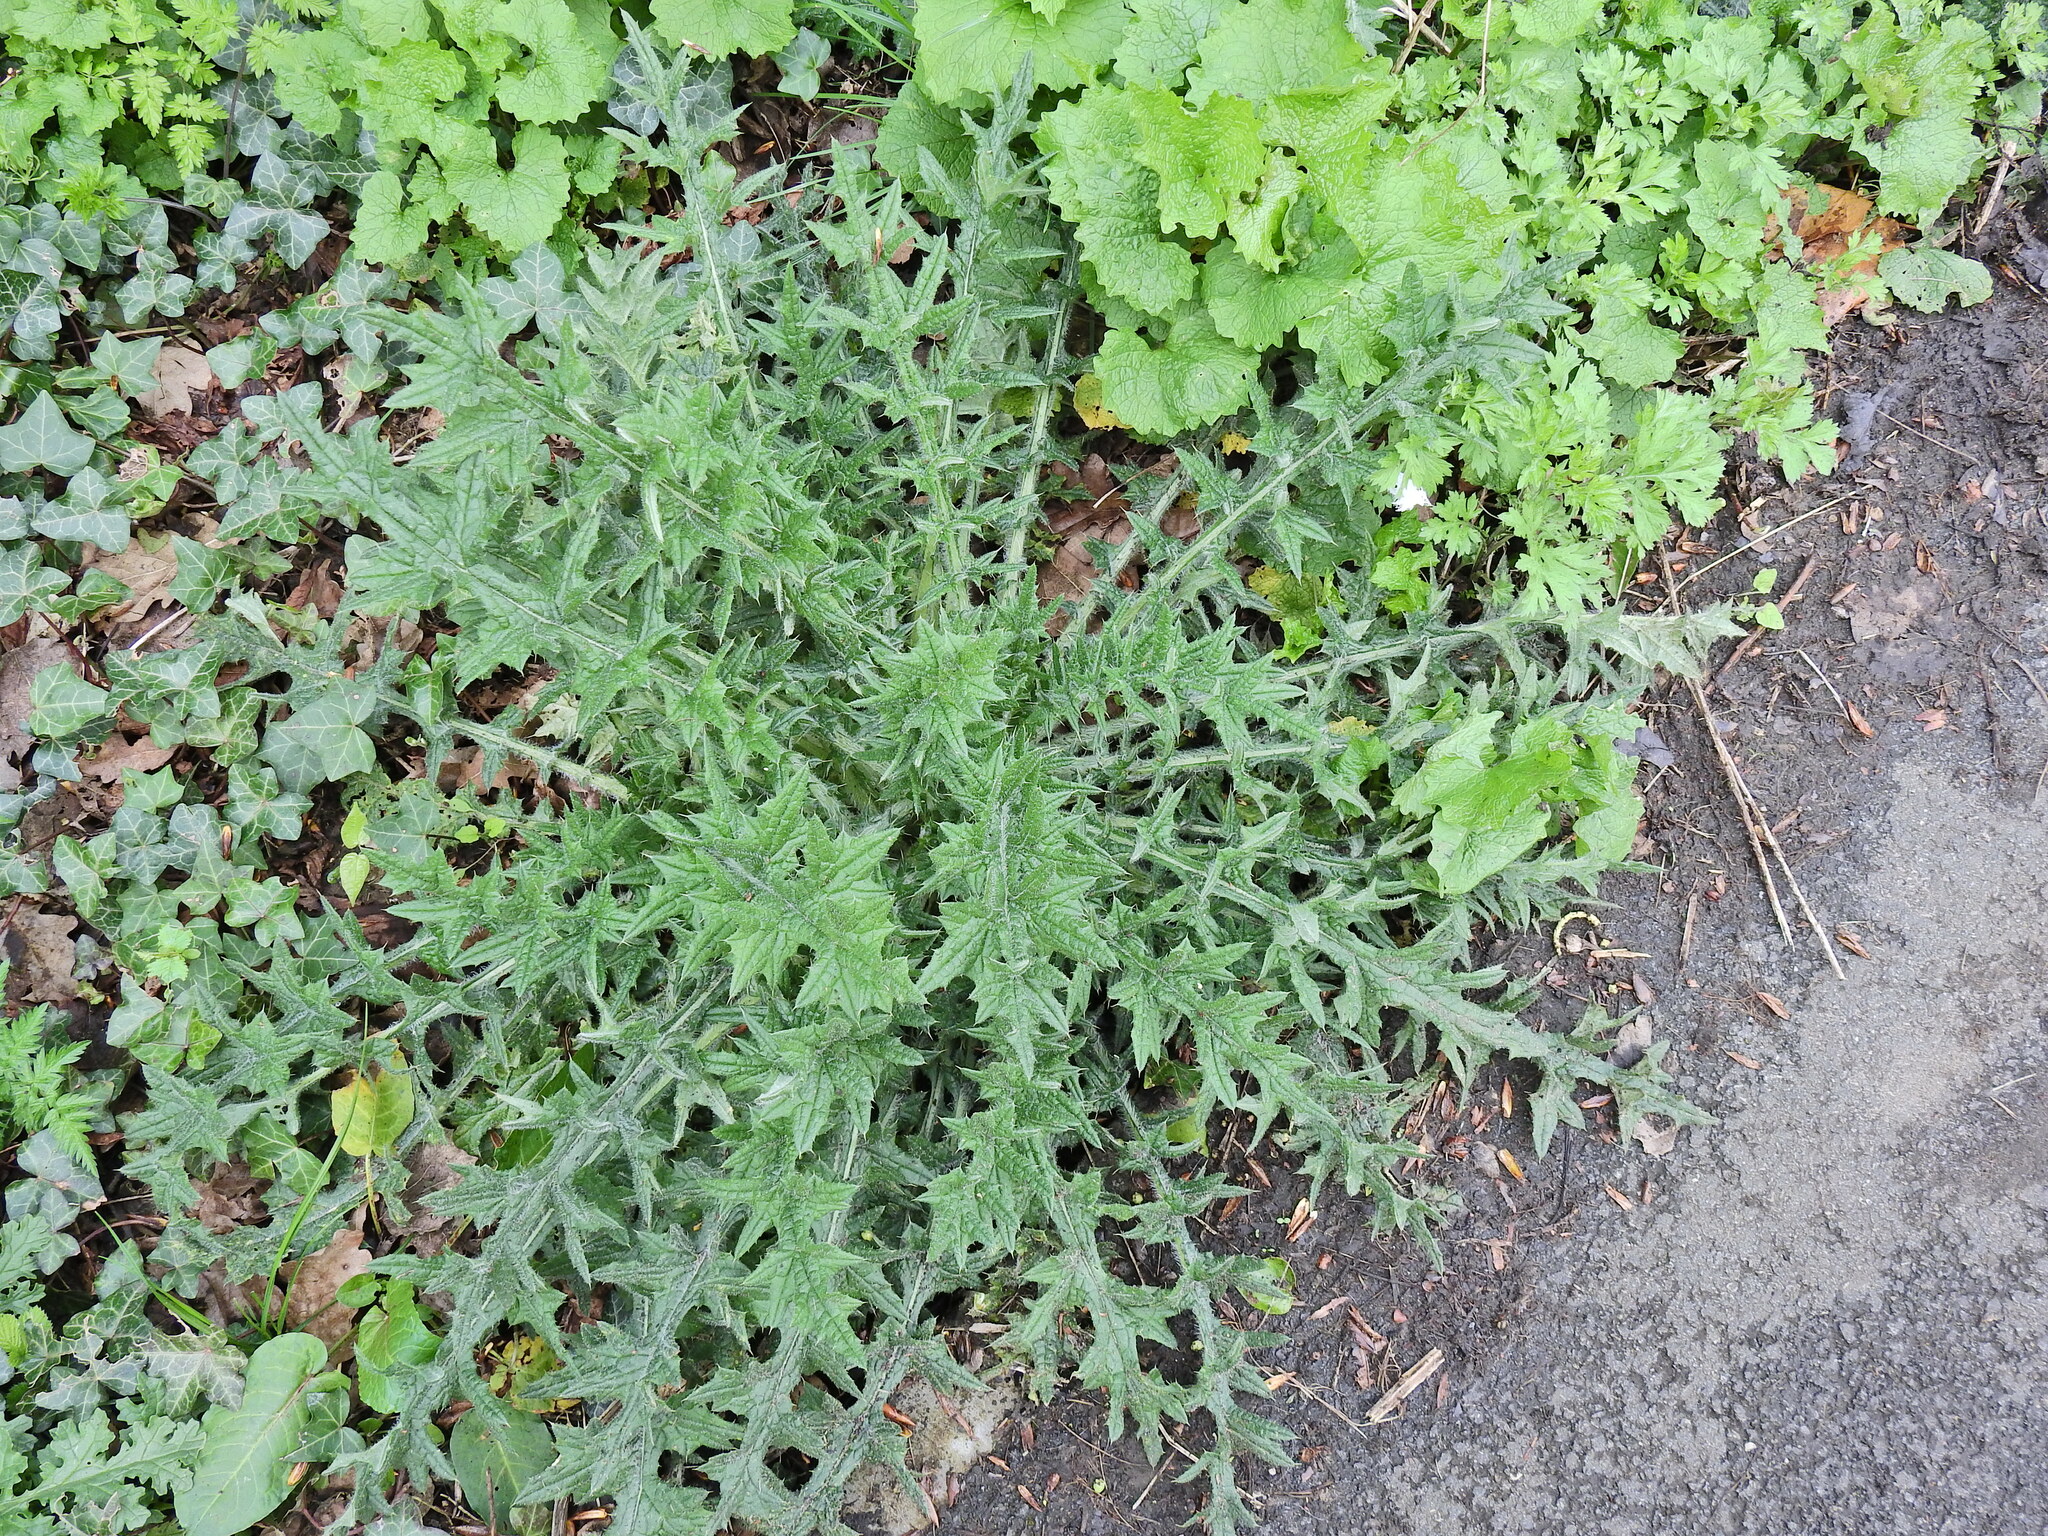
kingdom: Plantae
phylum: Tracheophyta
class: Magnoliopsida
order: Asterales
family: Asteraceae
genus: Cirsium
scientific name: Cirsium vulgare
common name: Bull thistle
